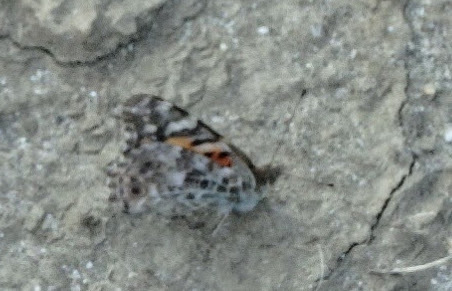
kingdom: Animalia
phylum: Arthropoda
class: Insecta
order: Lepidoptera
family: Nymphalidae
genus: Vanessa
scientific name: Vanessa cardui
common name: Painted lady
